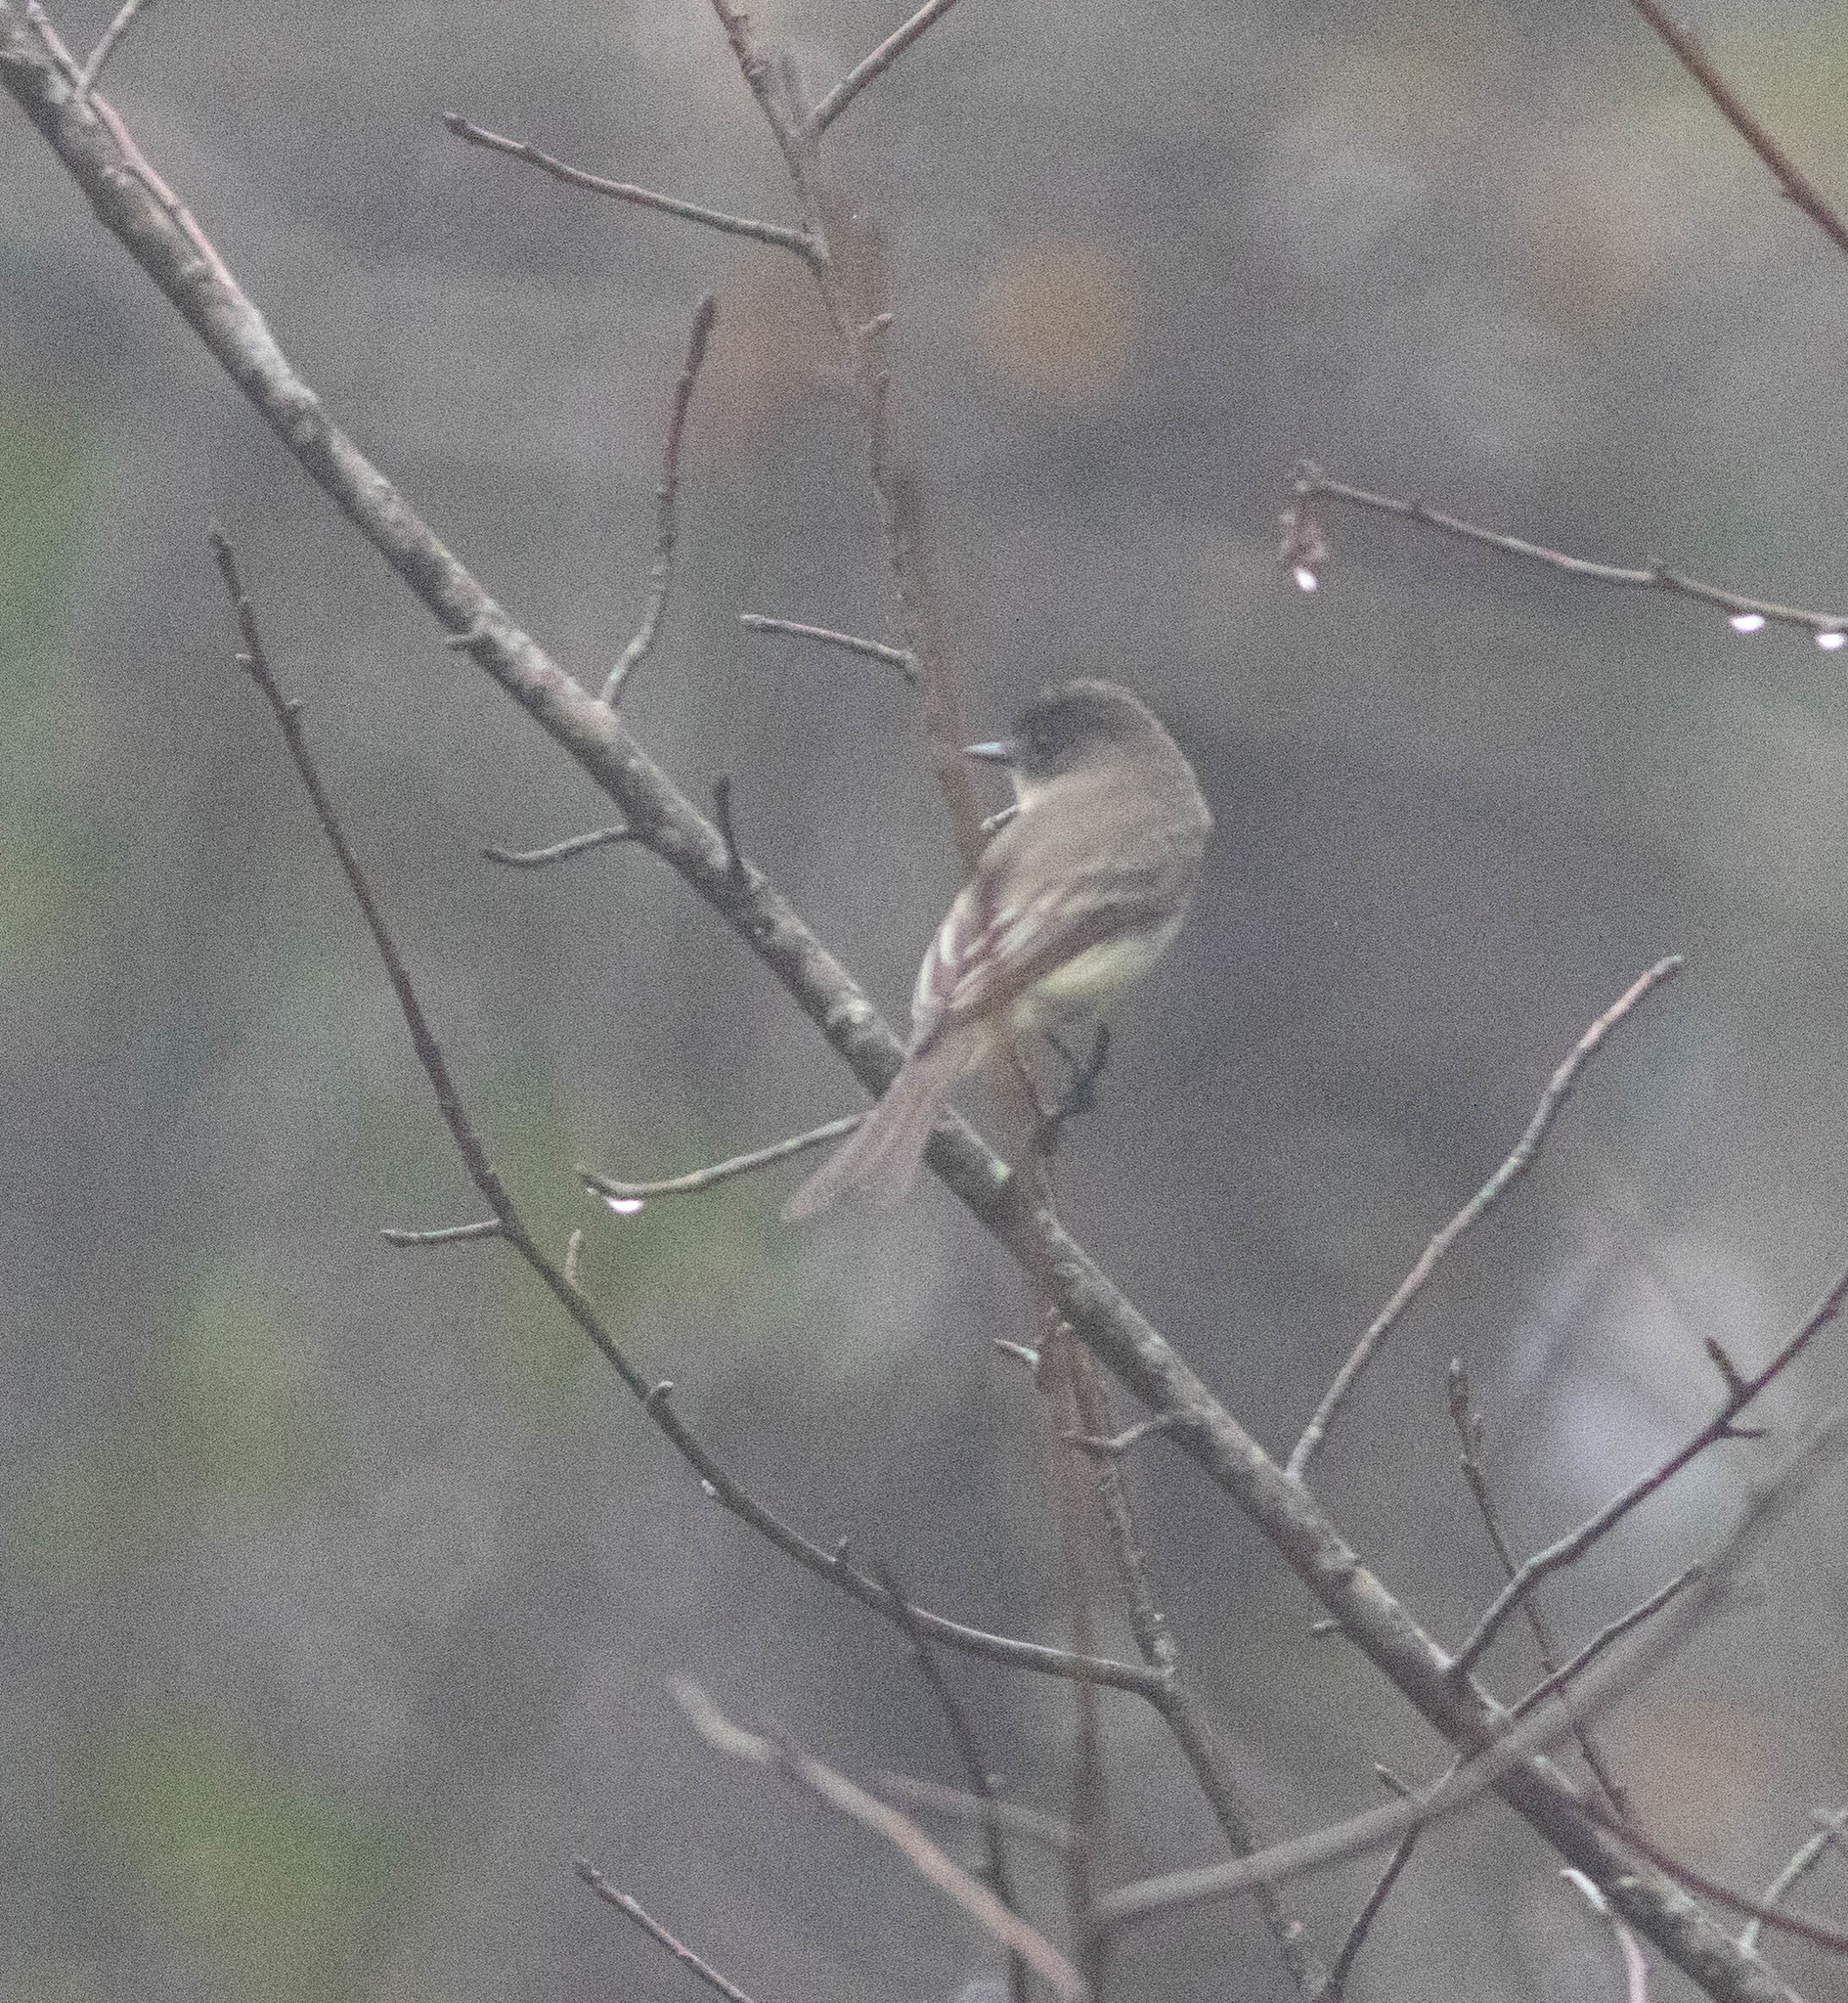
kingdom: Animalia
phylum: Chordata
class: Aves
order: Passeriformes
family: Tyrannidae
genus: Sayornis
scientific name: Sayornis phoebe
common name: Eastern phoebe
